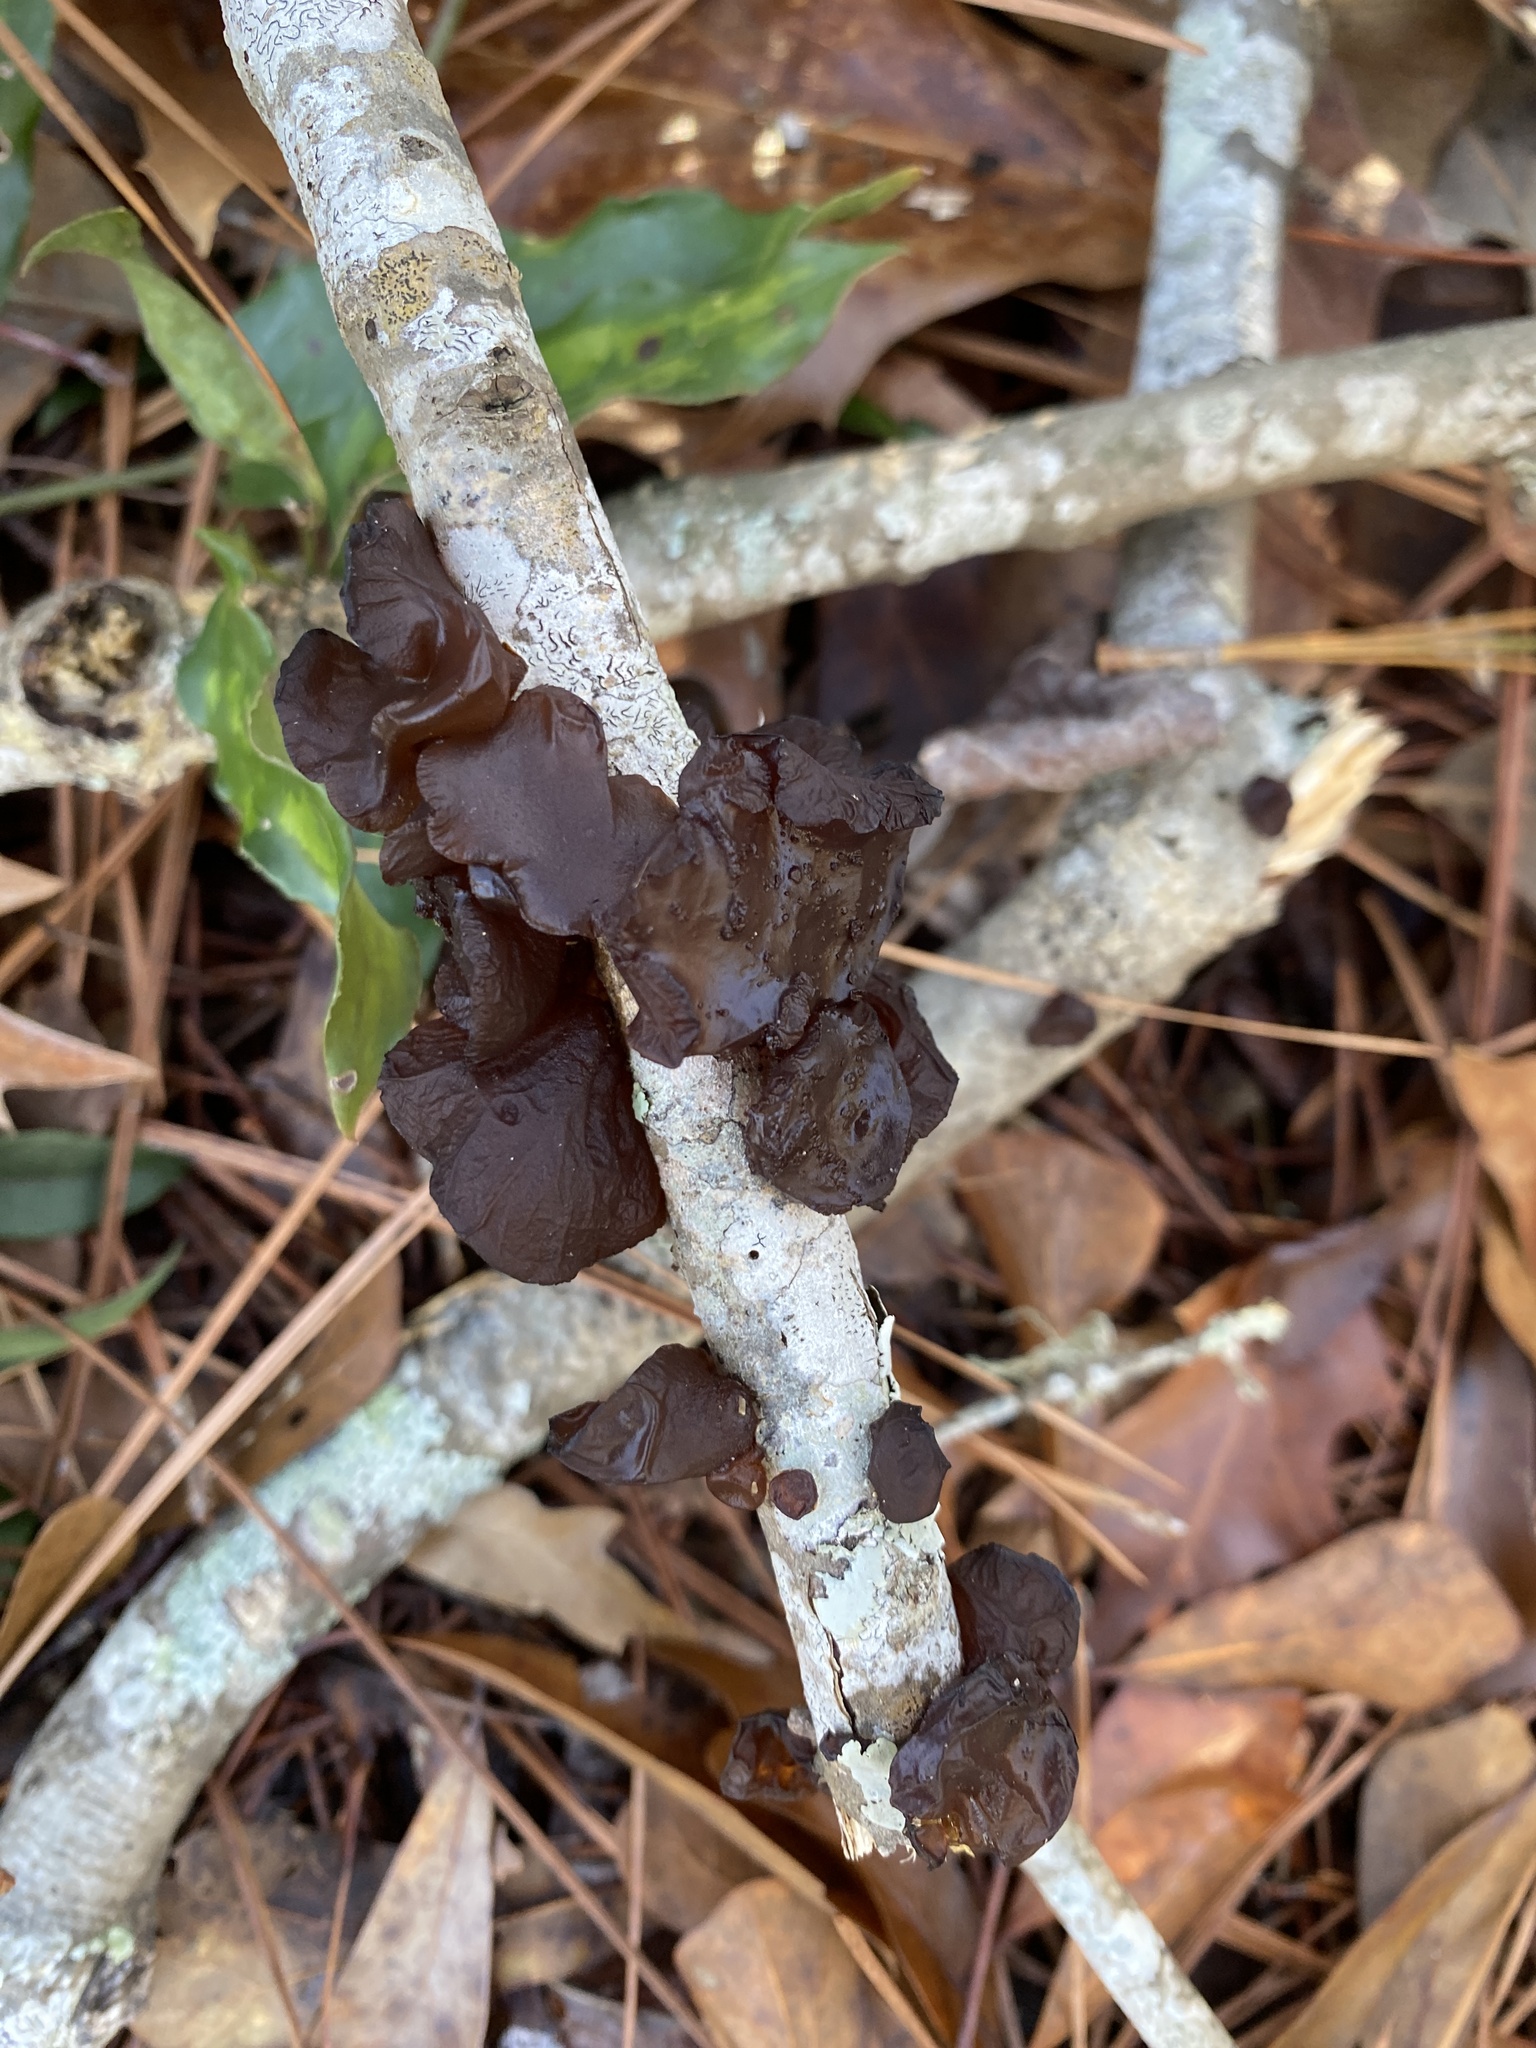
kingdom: Fungi
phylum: Basidiomycota
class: Agaricomycetes
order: Auriculariales
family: Auriculariaceae
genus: Exidia
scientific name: Exidia
